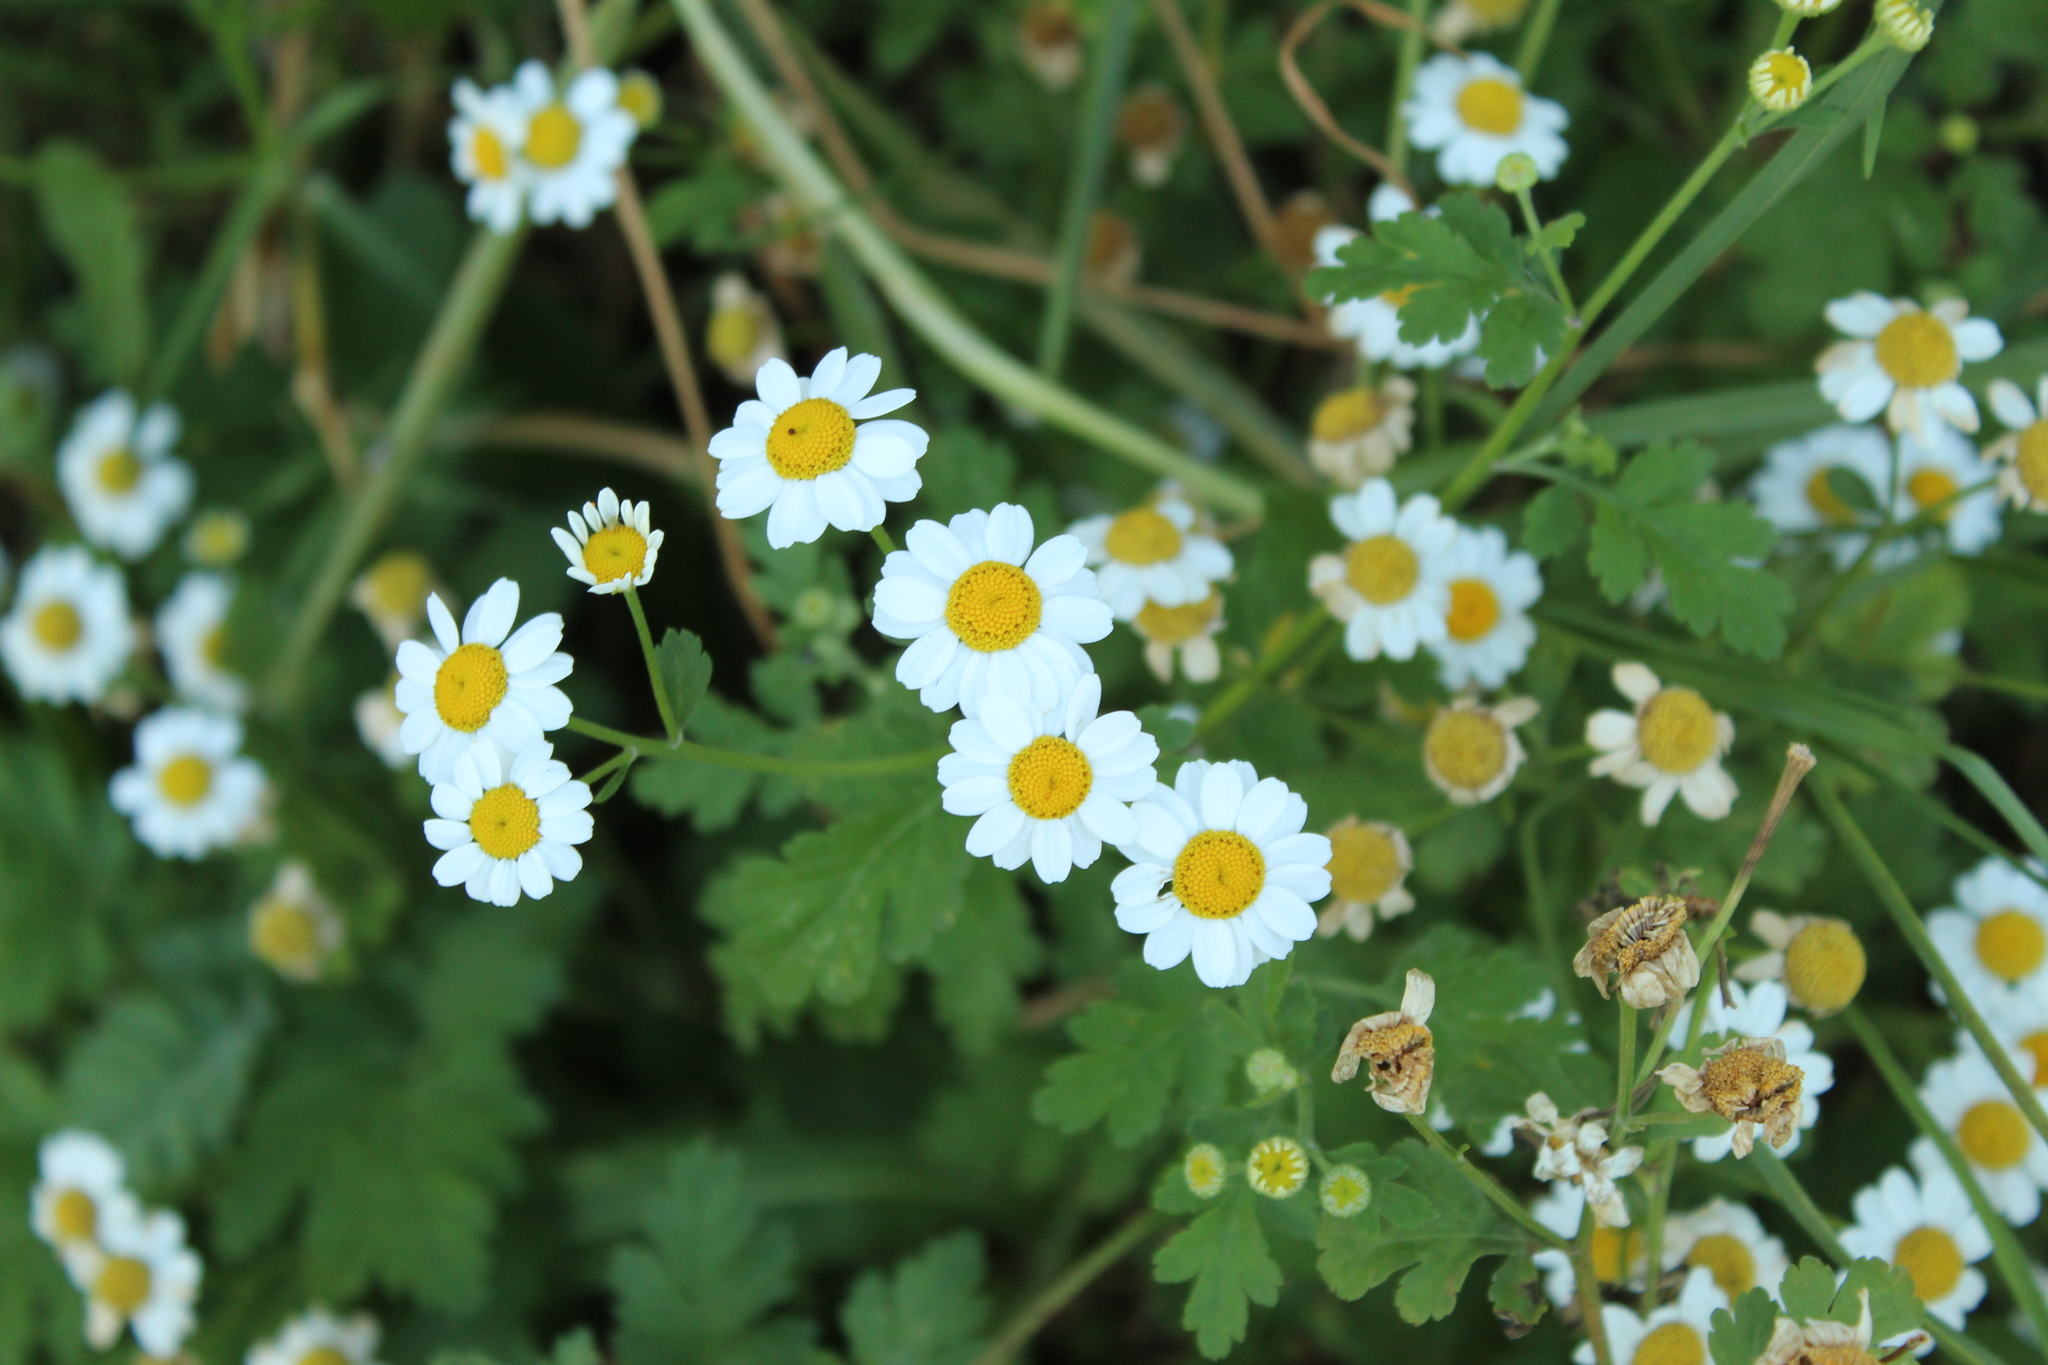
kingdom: Plantae
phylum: Tracheophyta
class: Magnoliopsida
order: Asterales
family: Asteraceae
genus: Tanacetum
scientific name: Tanacetum parthenium
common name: Feverfew
